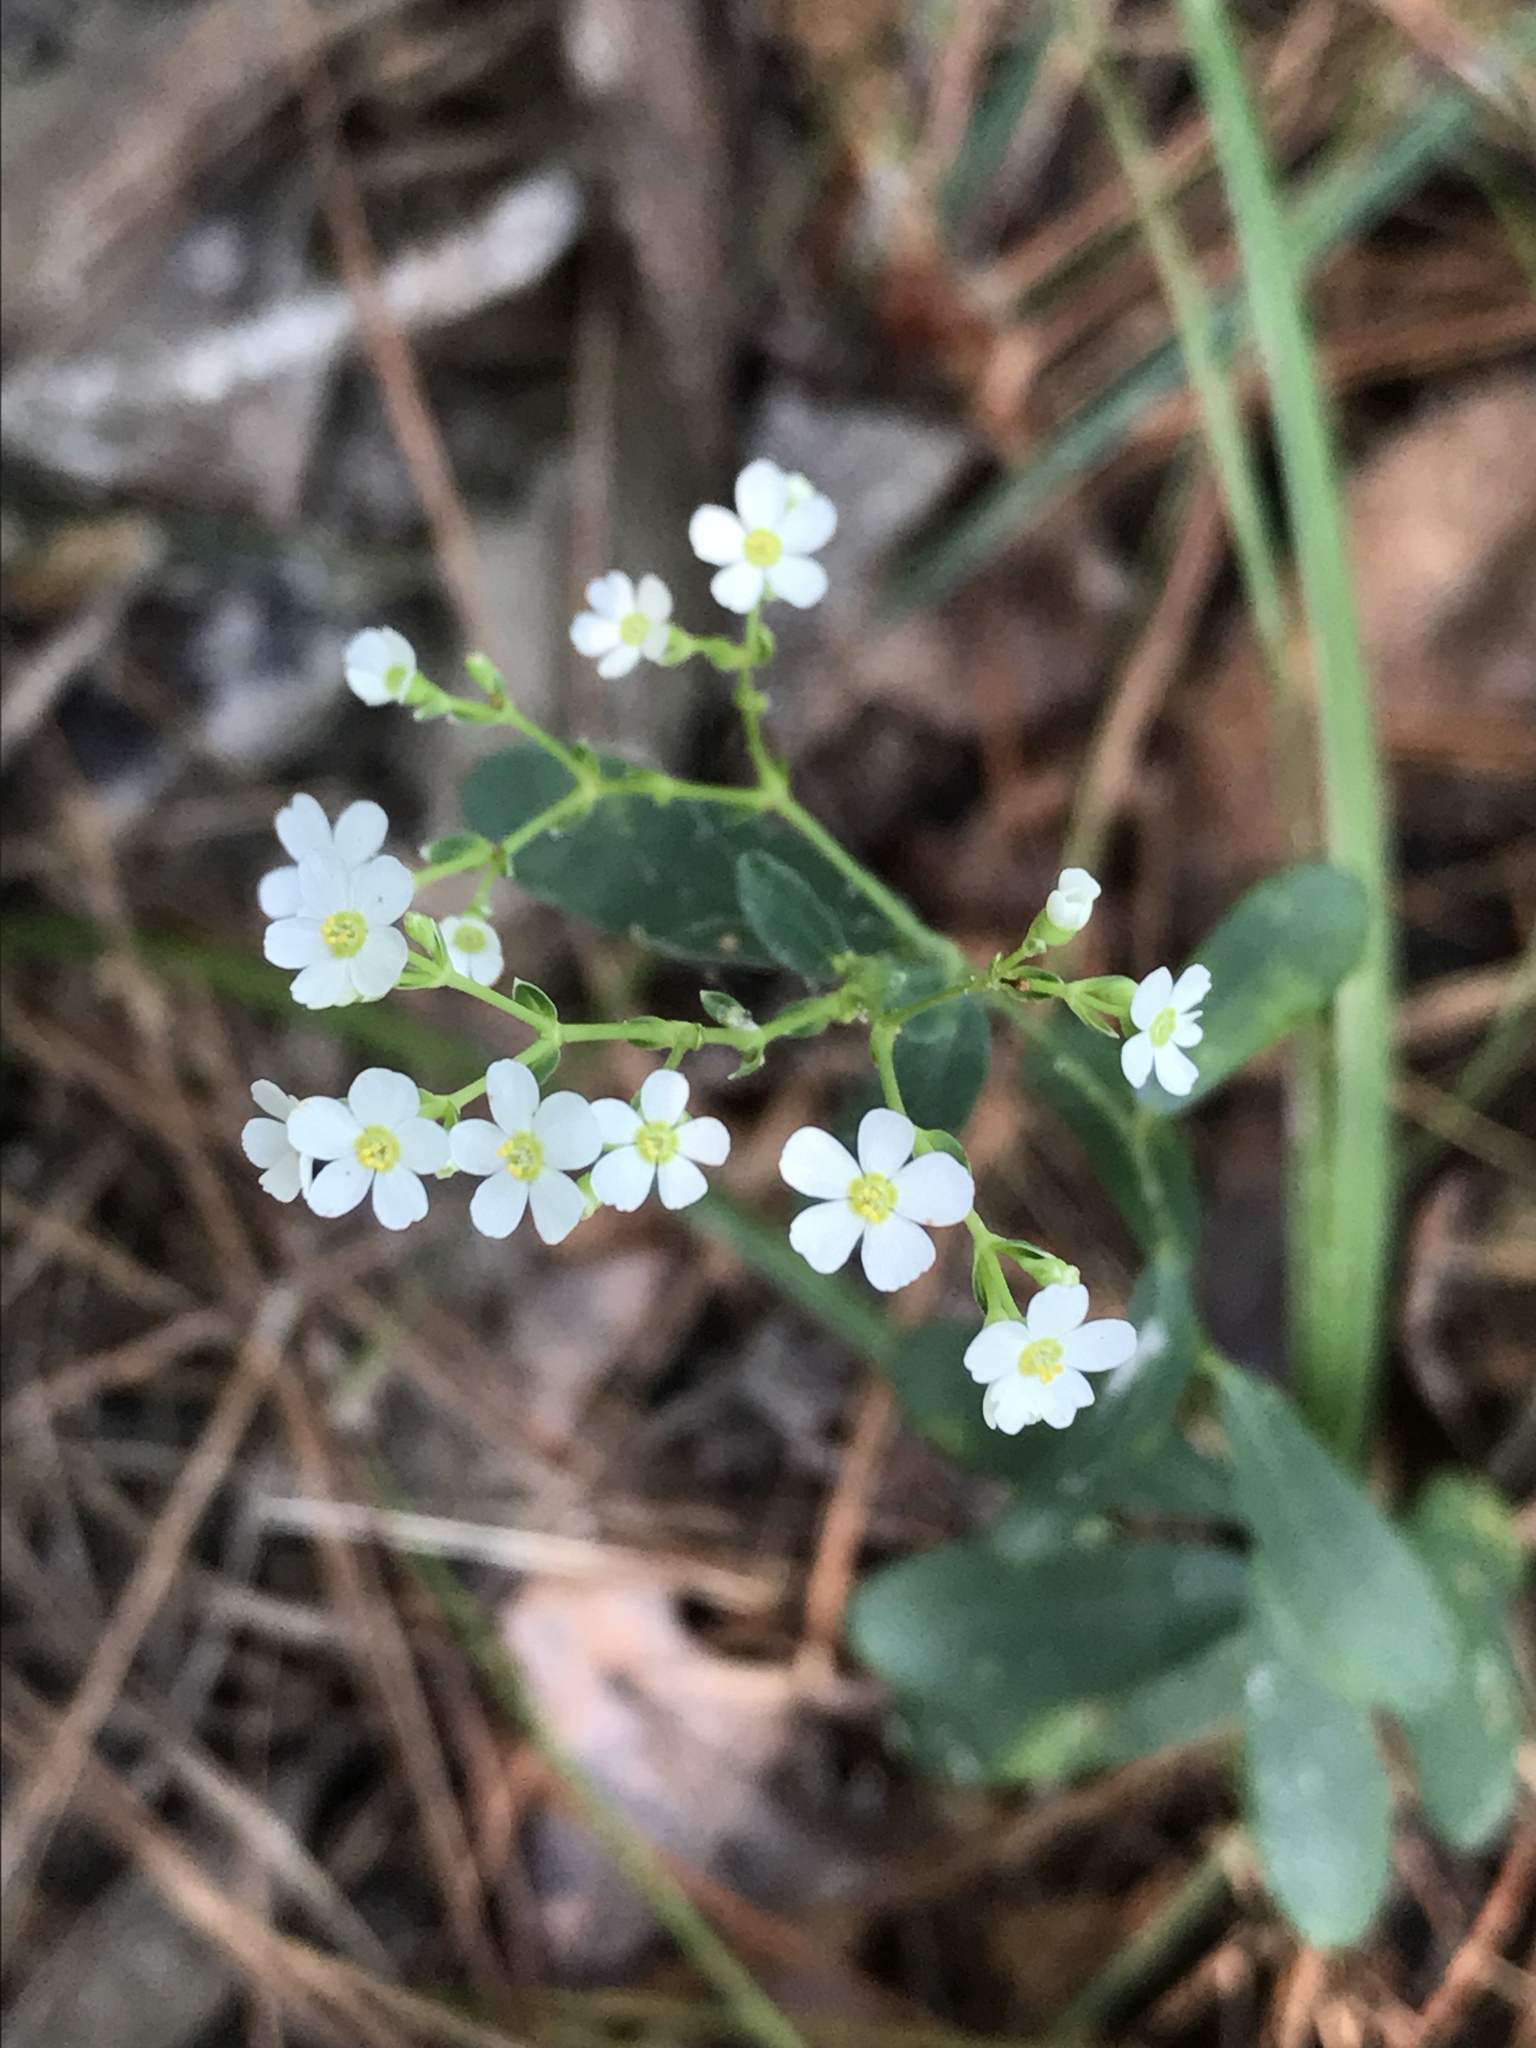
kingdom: Plantae
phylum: Tracheophyta
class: Magnoliopsida
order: Malpighiales
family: Euphorbiaceae
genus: Euphorbia
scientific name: Euphorbia corollata
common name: Flowering spurge
